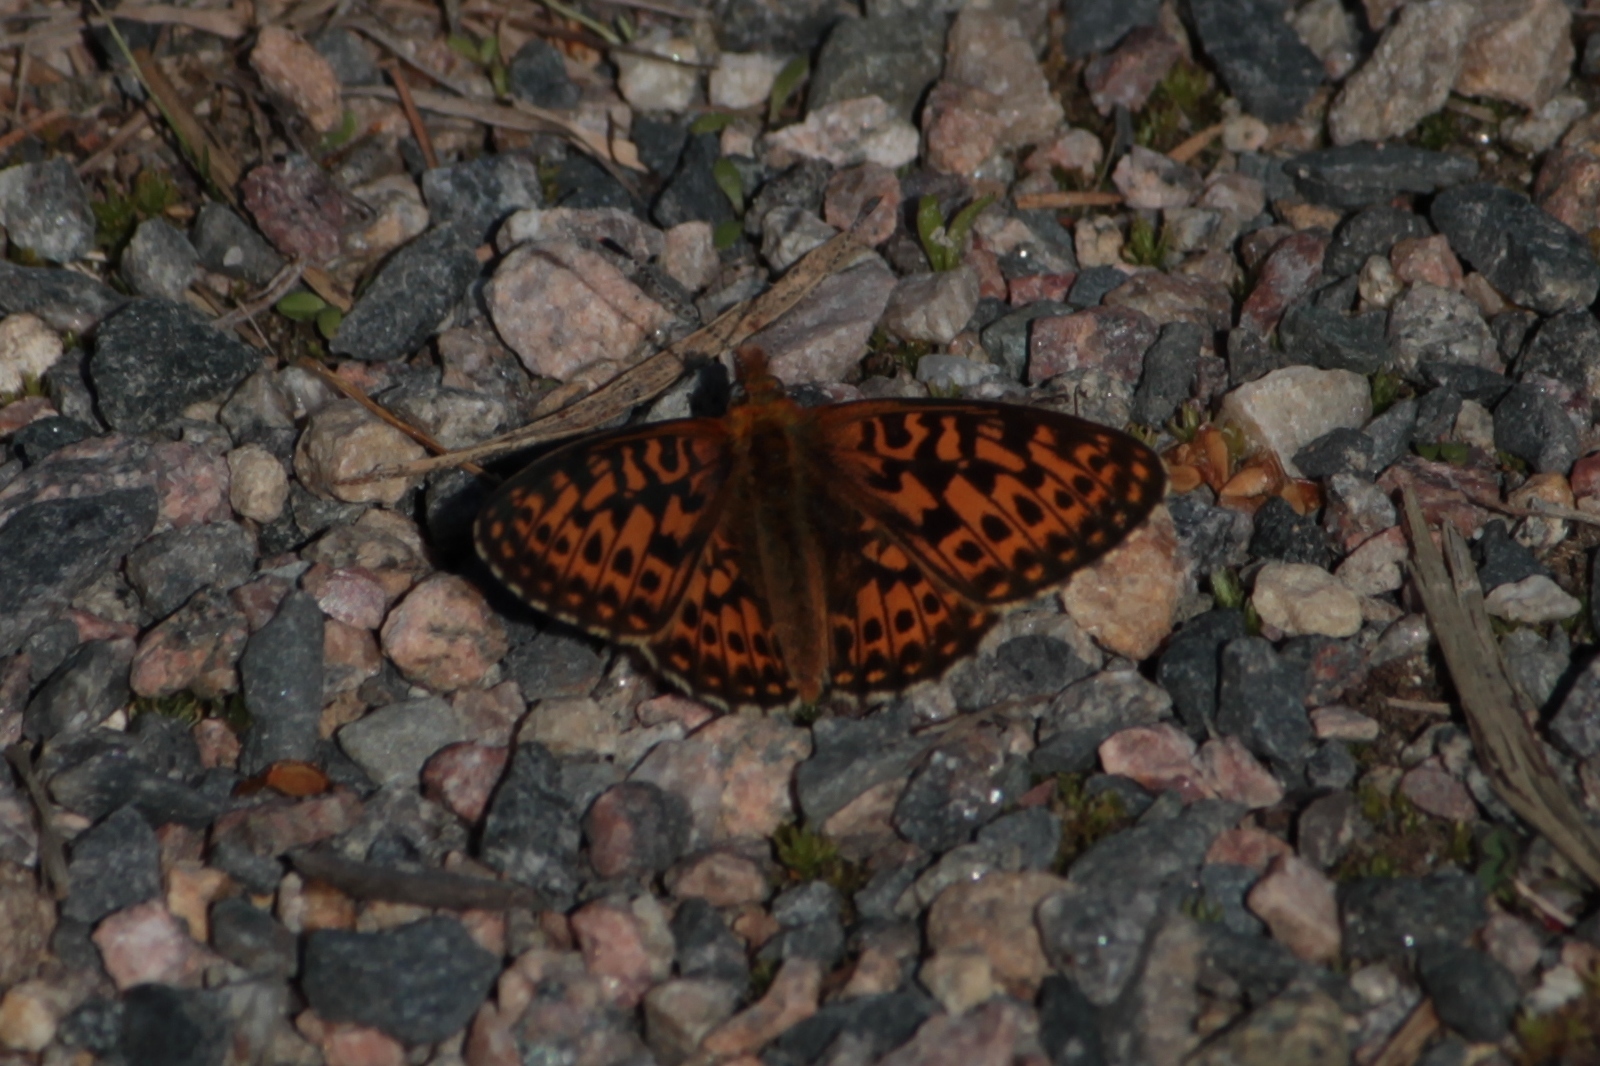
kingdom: Animalia
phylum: Arthropoda
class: Insecta
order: Lepidoptera
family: Nymphalidae
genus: Clossiana
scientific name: Clossiana euphrosyne
